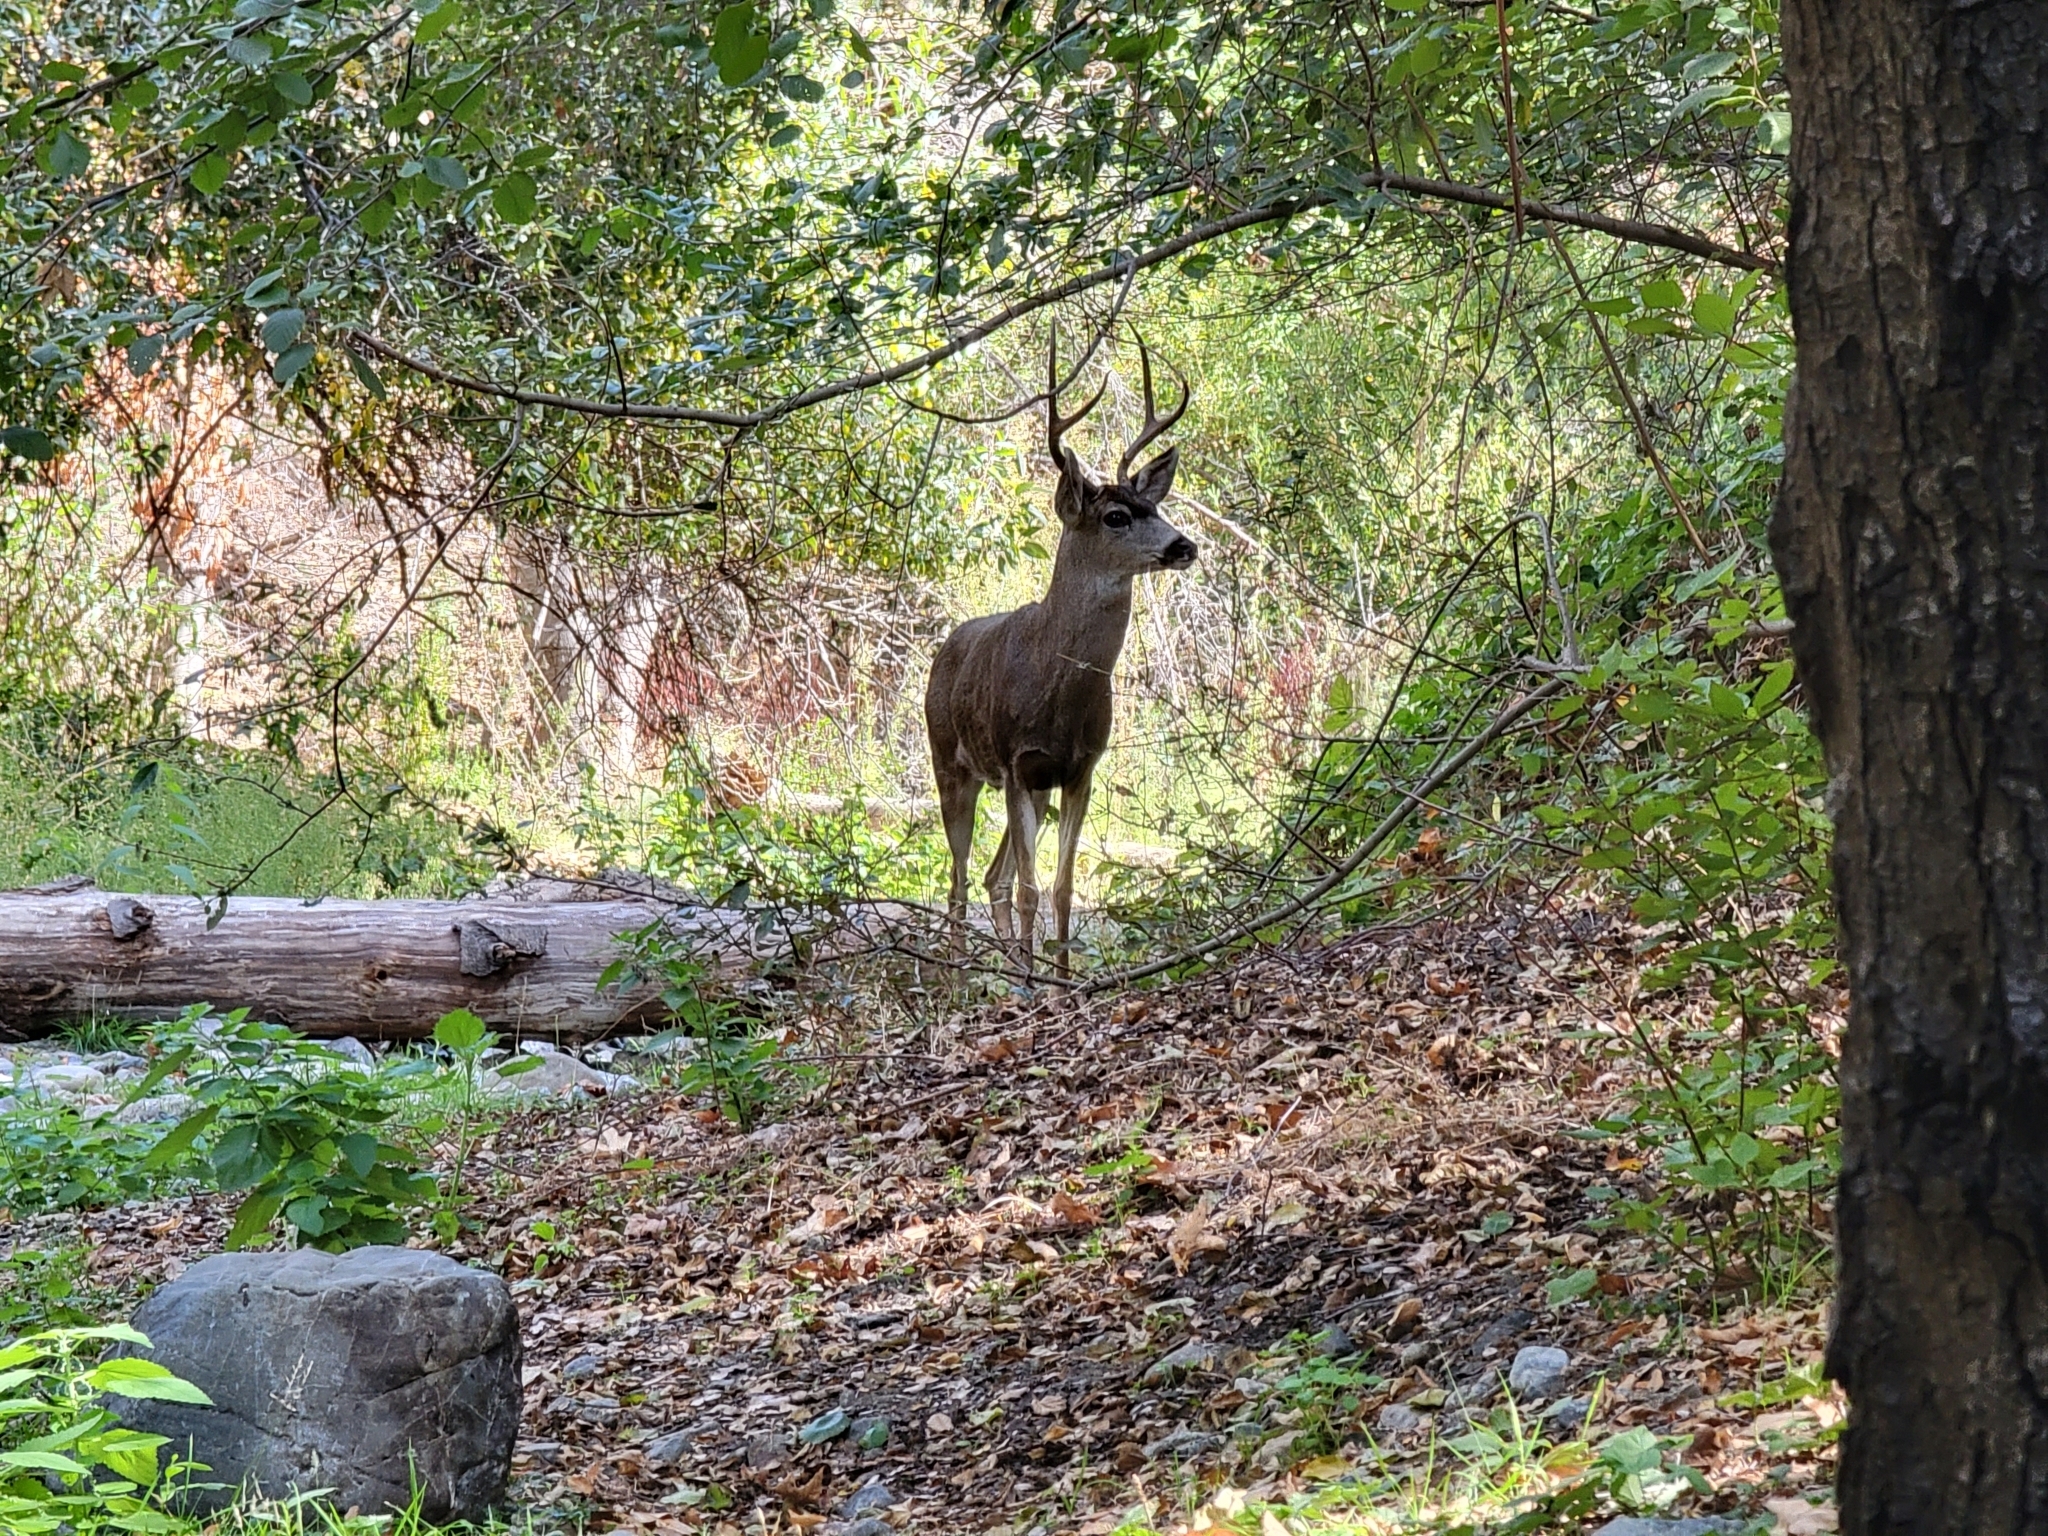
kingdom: Animalia
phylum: Chordata
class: Mammalia
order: Artiodactyla
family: Cervidae
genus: Odocoileus
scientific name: Odocoileus hemionus
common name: Mule deer
